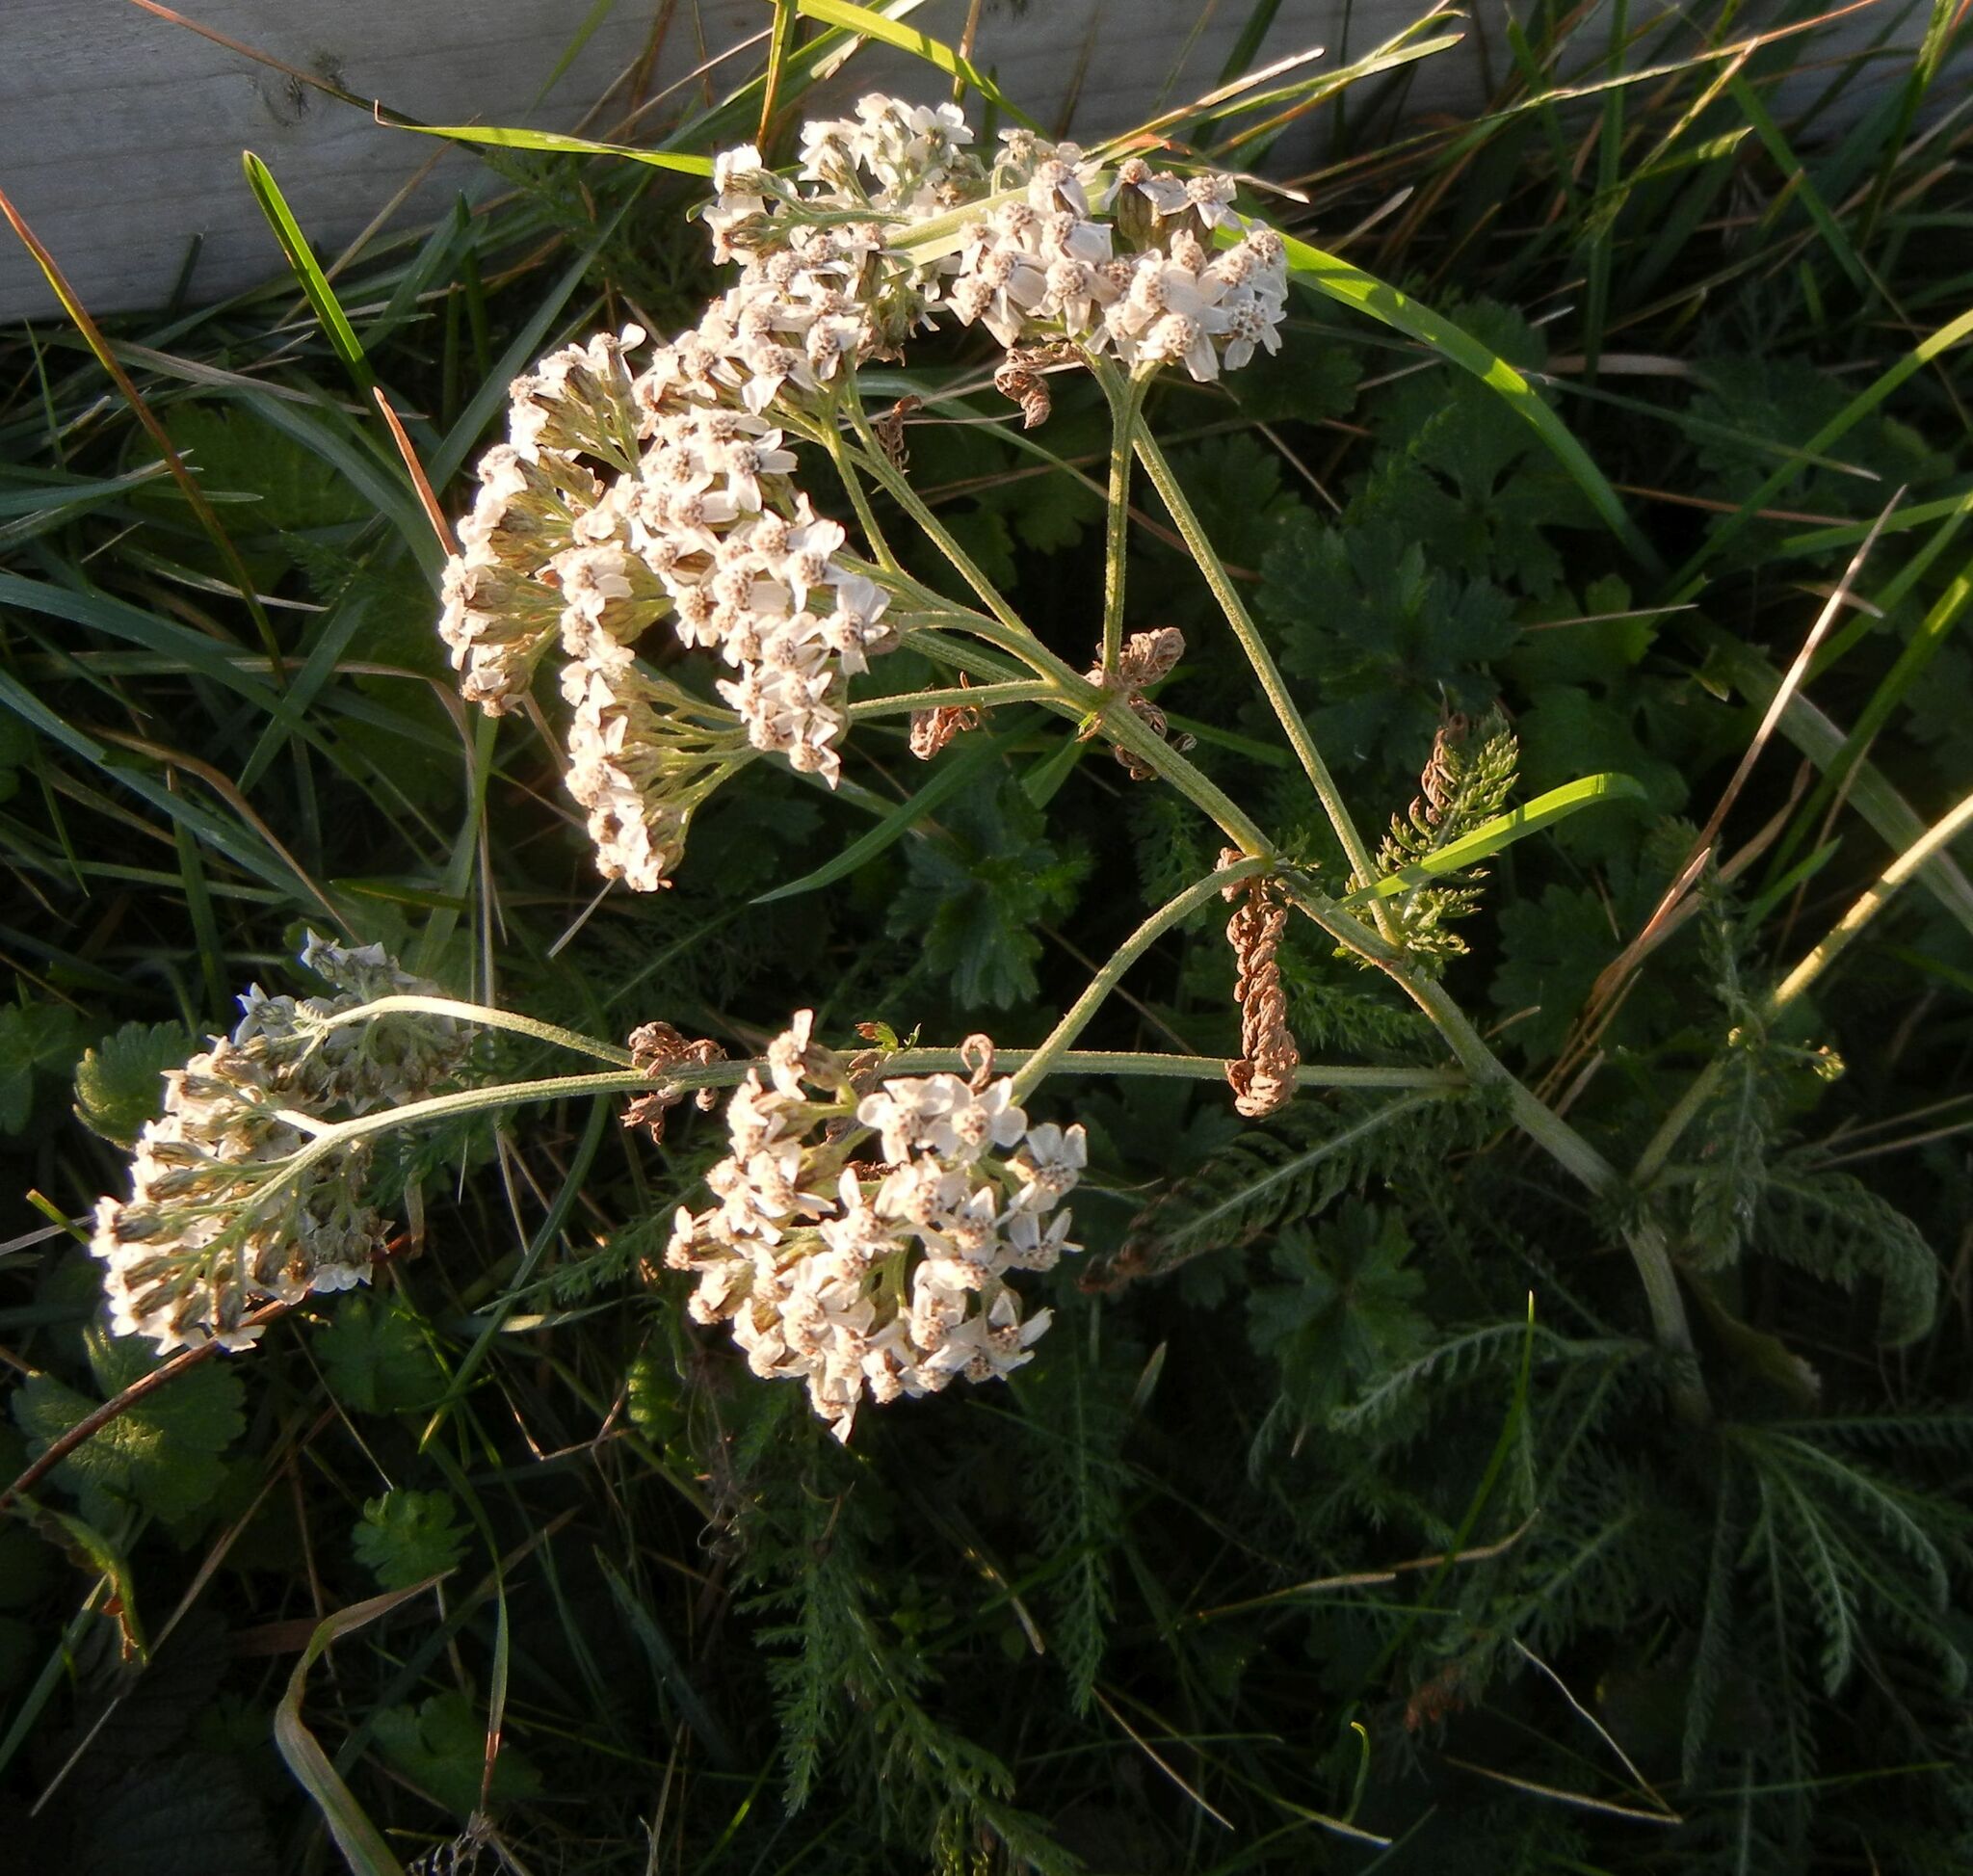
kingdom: Plantae
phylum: Tracheophyta
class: Magnoliopsida
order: Asterales
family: Asteraceae
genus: Achillea
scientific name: Achillea millefolium
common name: Yarrow
